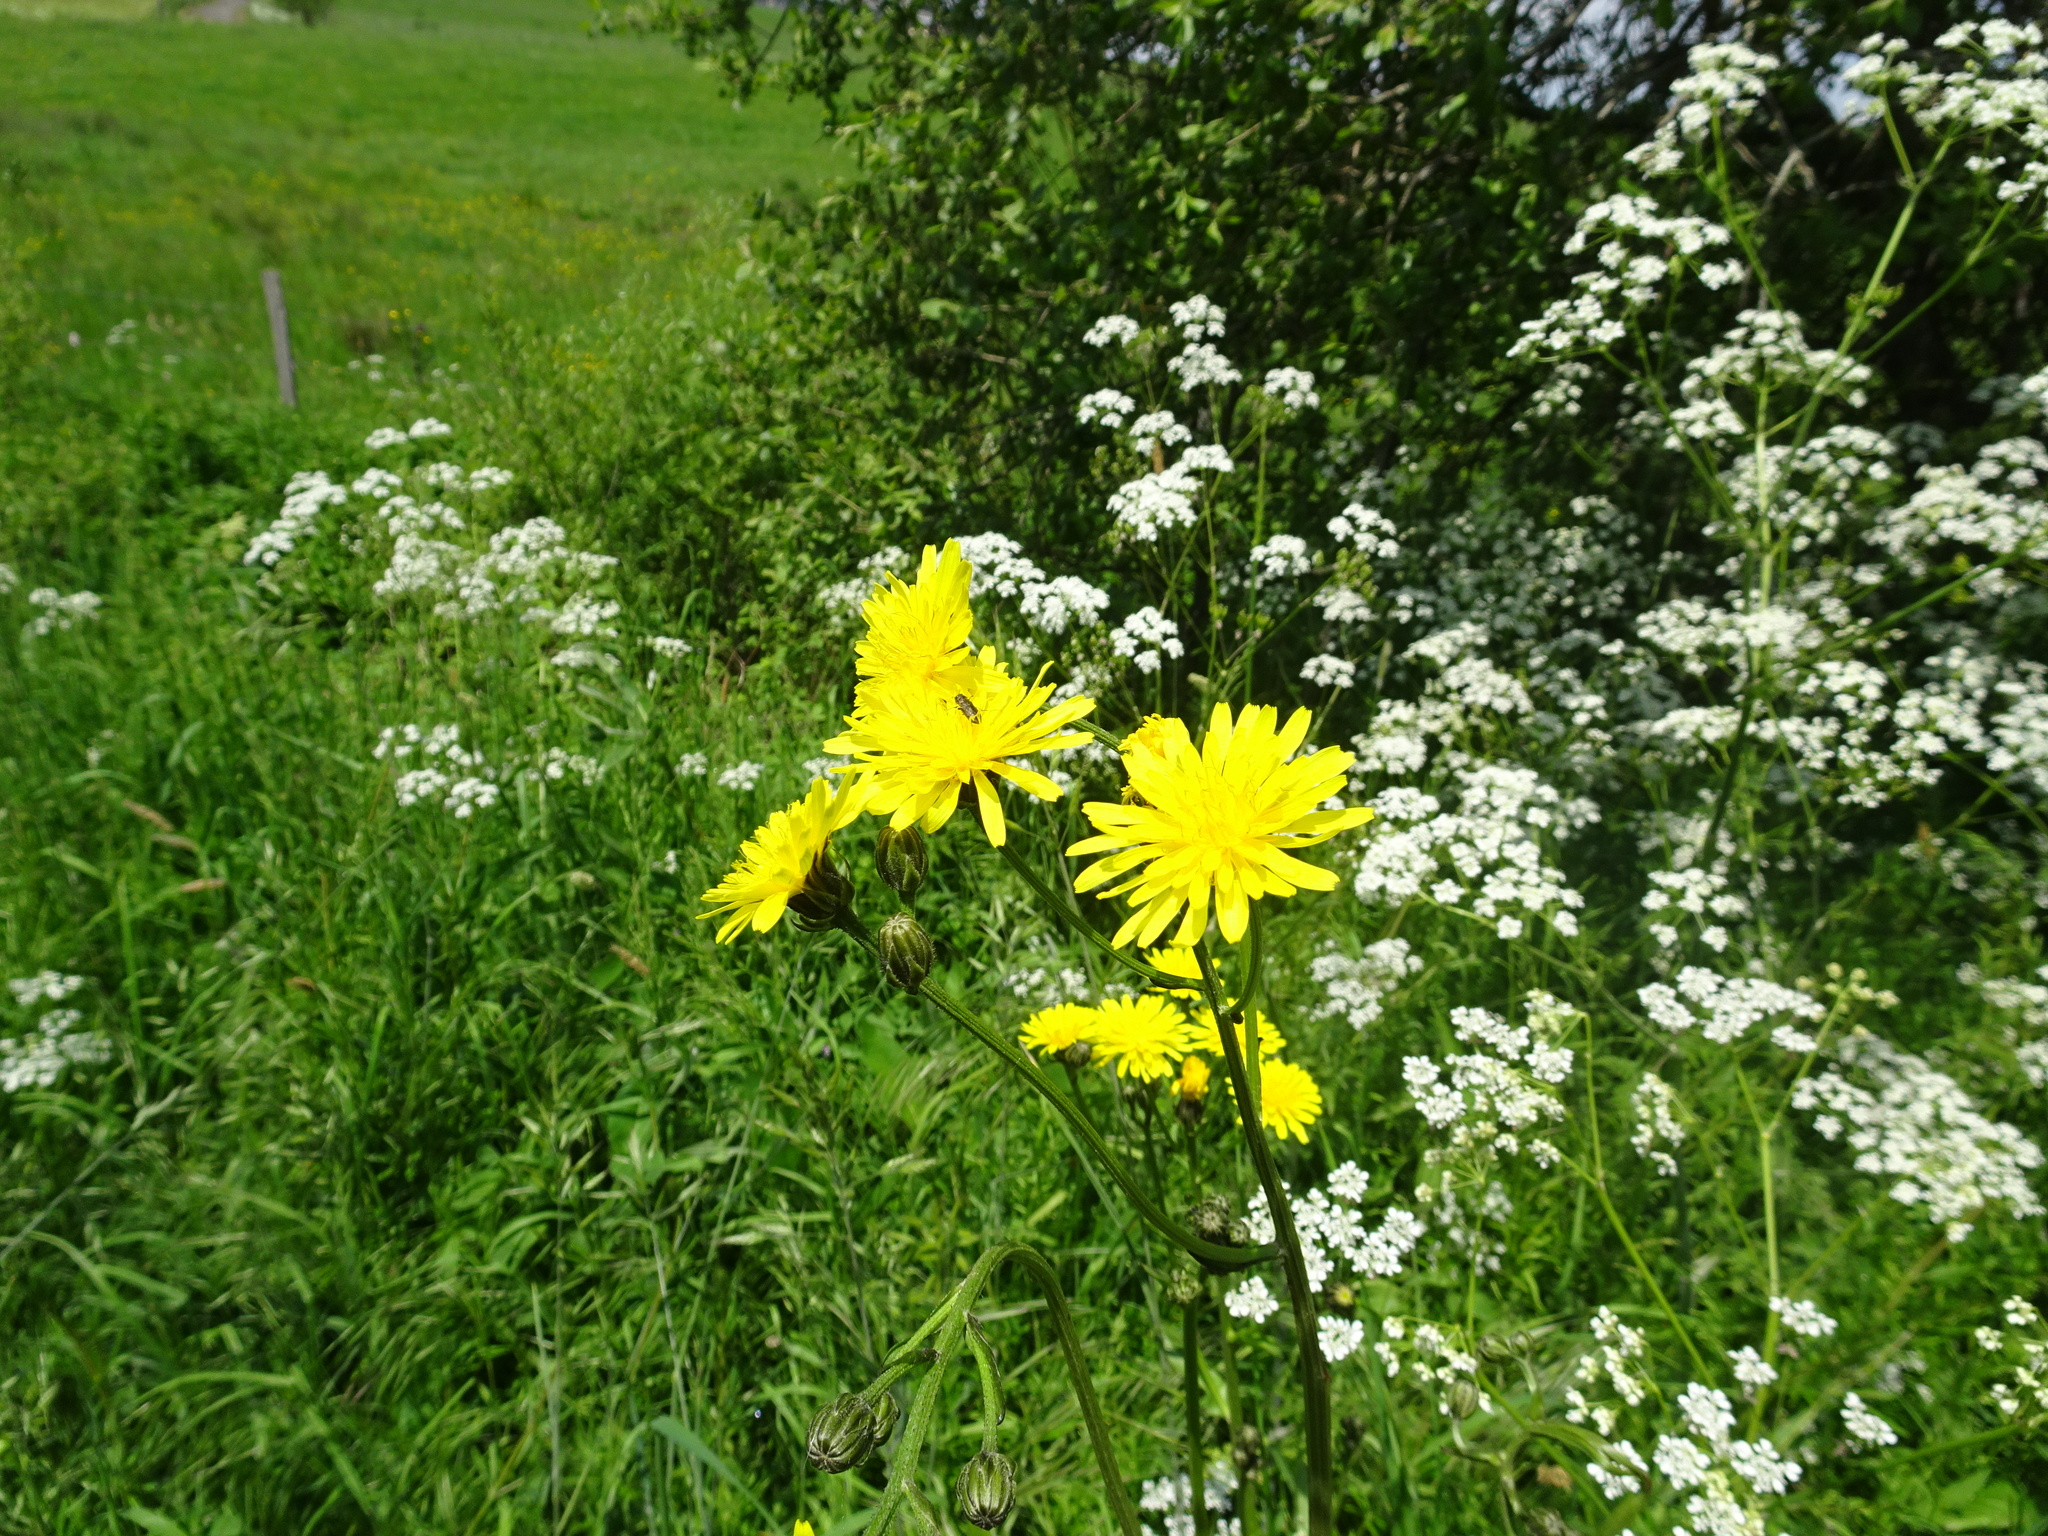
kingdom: Plantae
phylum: Tracheophyta
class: Magnoliopsida
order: Asterales
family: Asteraceae
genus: Crepis
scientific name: Crepis biennis
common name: Rough hawk's-beard
